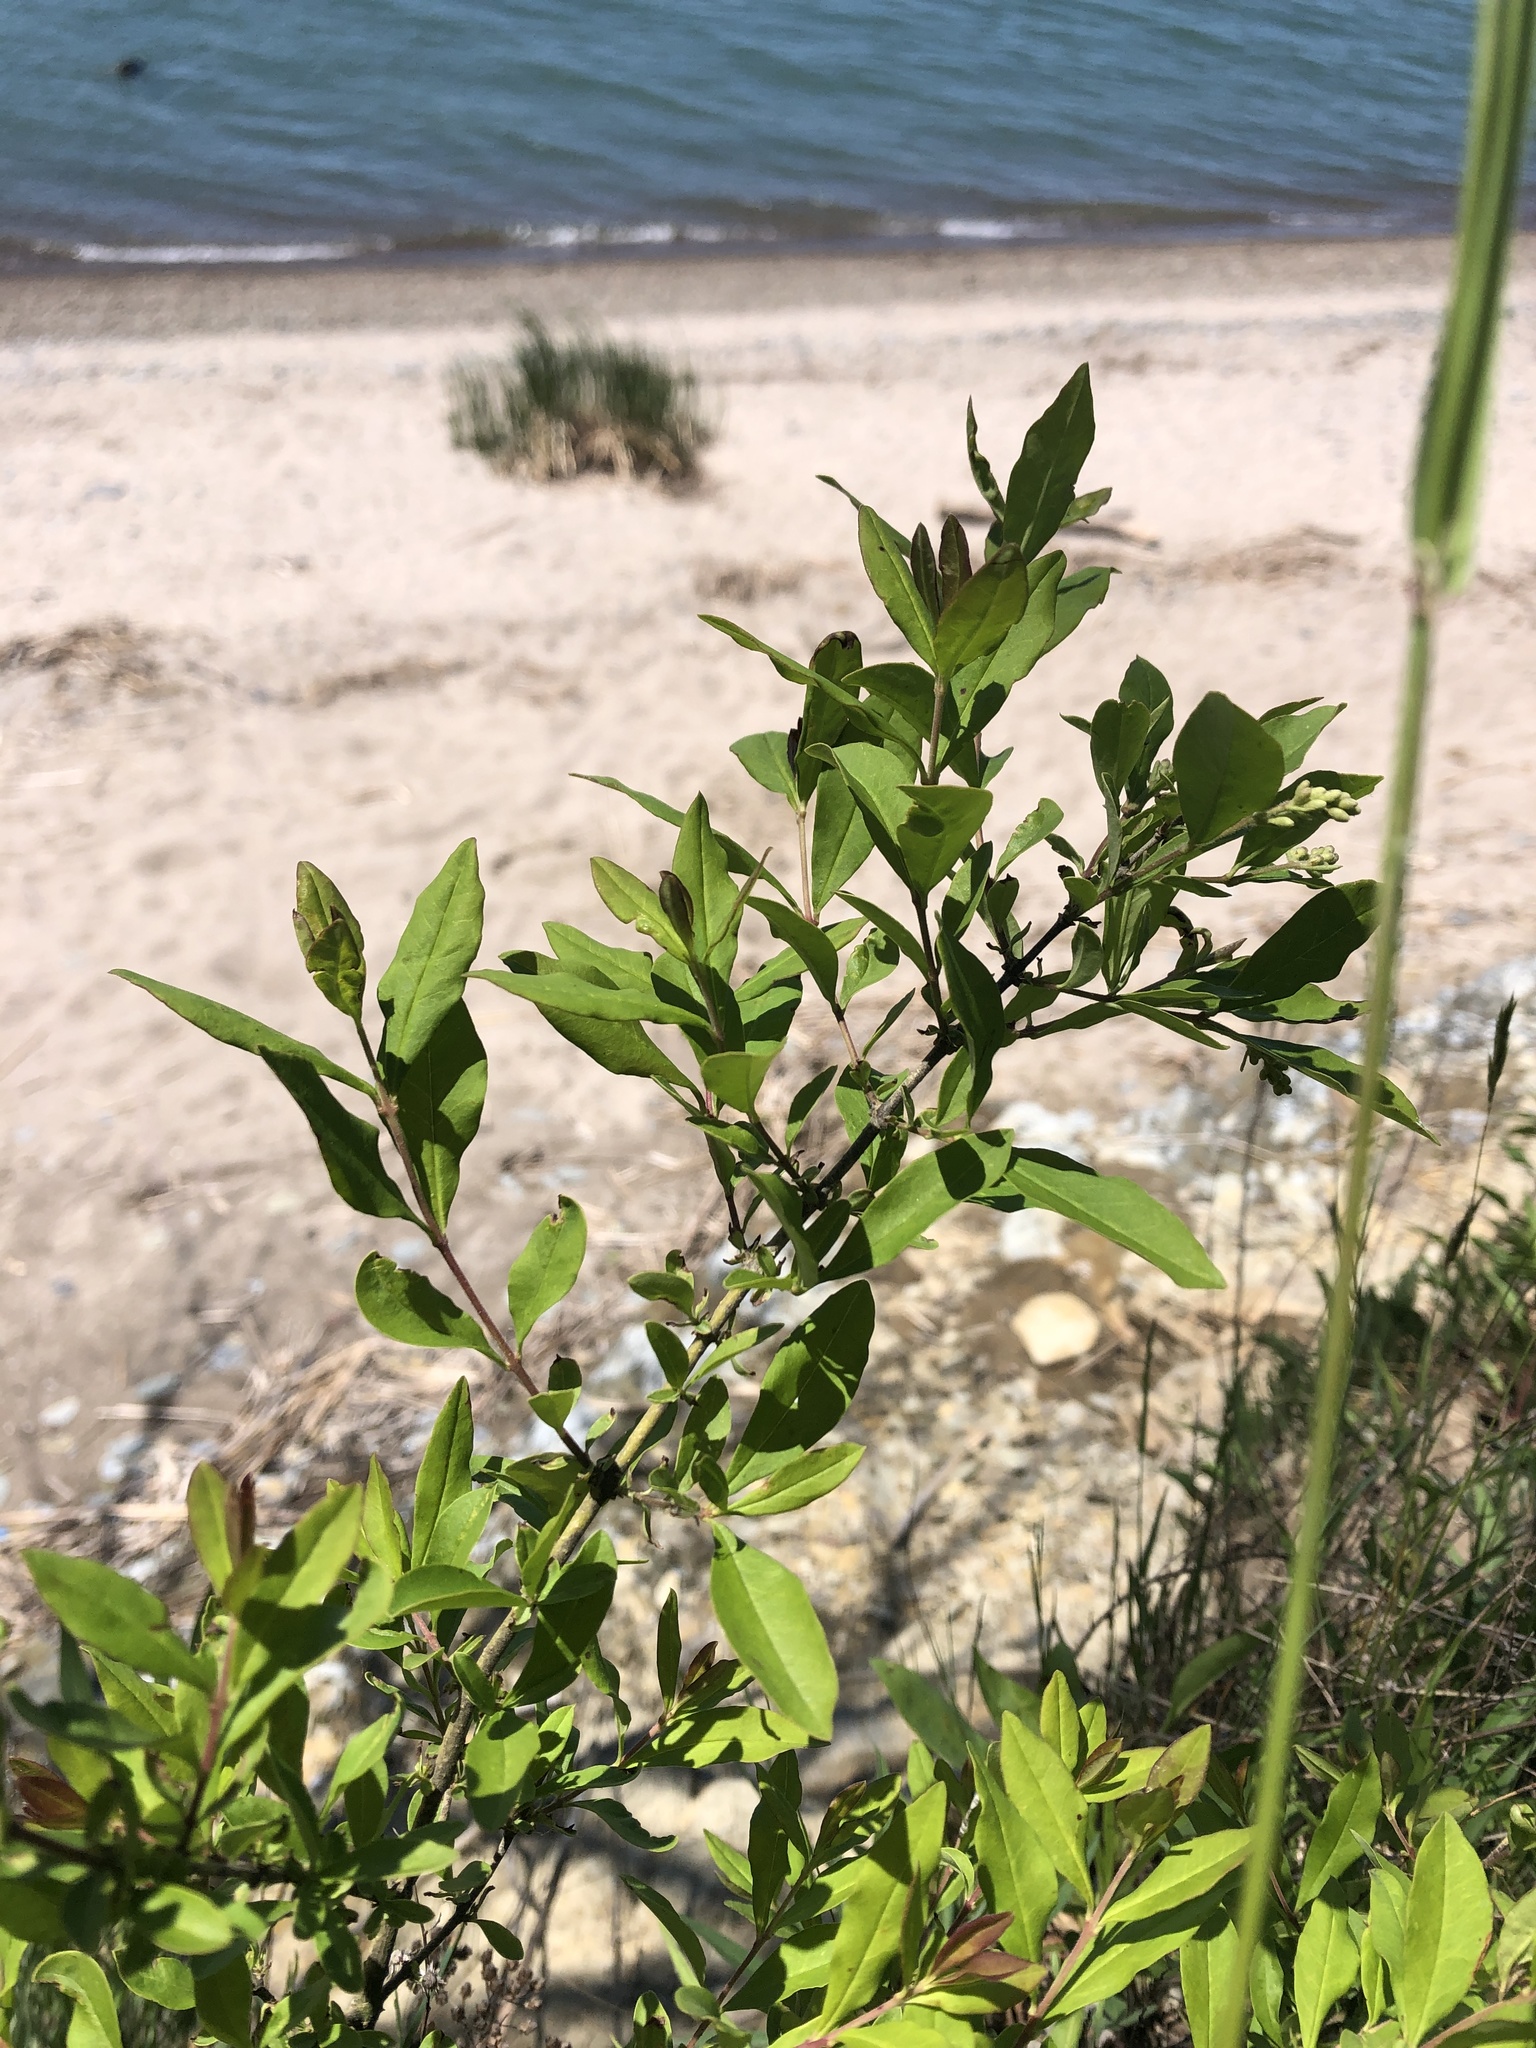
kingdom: Plantae
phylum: Tracheophyta
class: Magnoliopsida
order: Lamiales
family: Oleaceae
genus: Ligustrum
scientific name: Ligustrum obtusifolium
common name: Border privet
